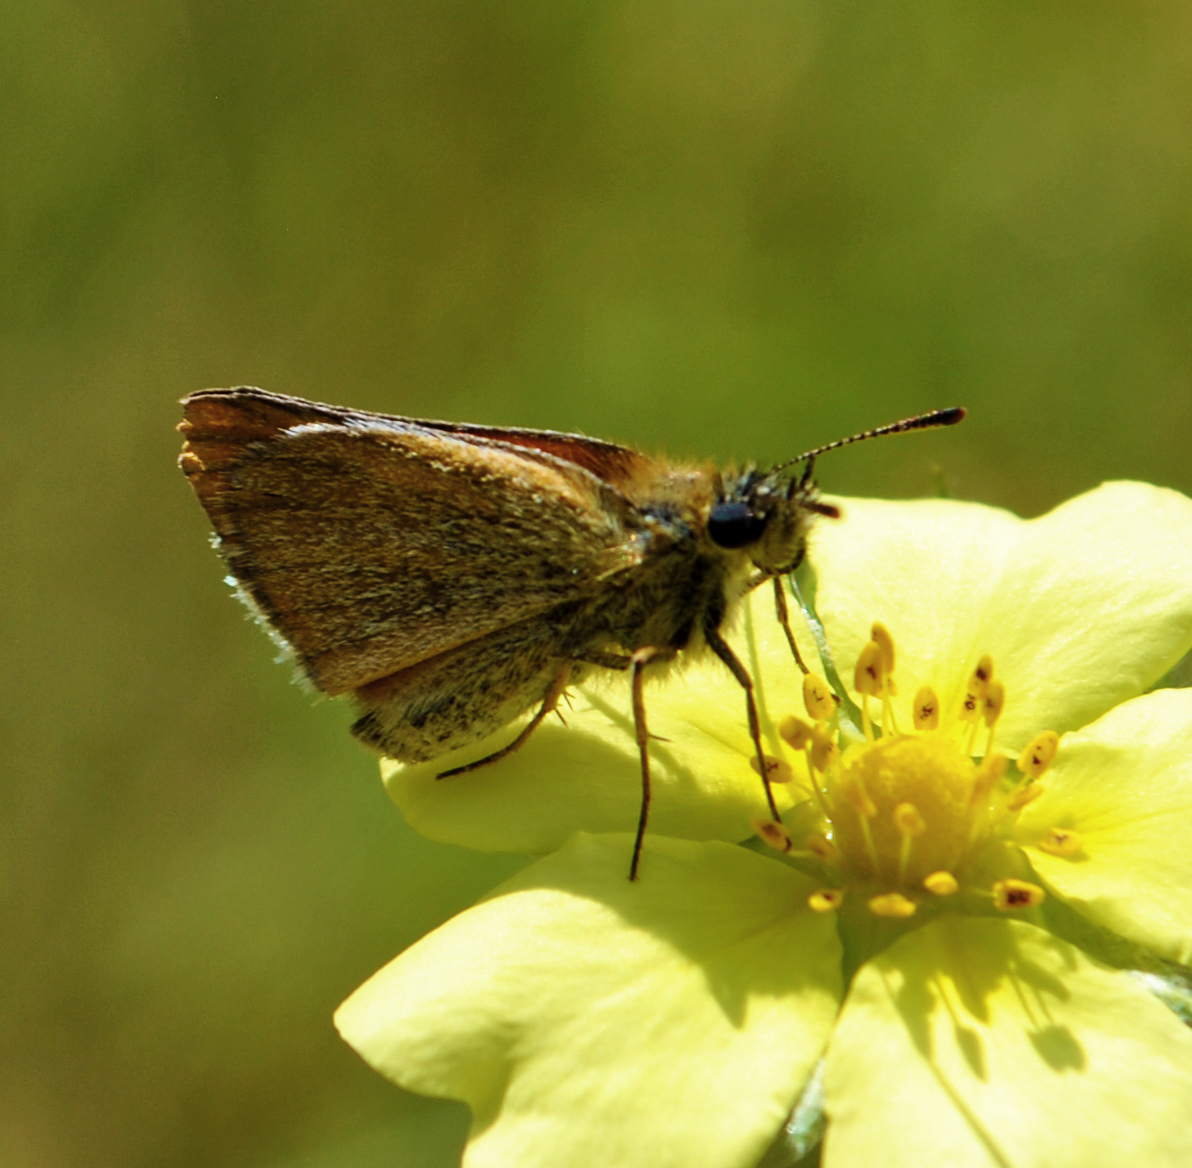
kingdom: Animalia
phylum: Arthropoda
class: Insecta
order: Lepidoptera
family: Hesperiidae
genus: Thymelicus
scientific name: Thymelicus lineola
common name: Essex skipper
